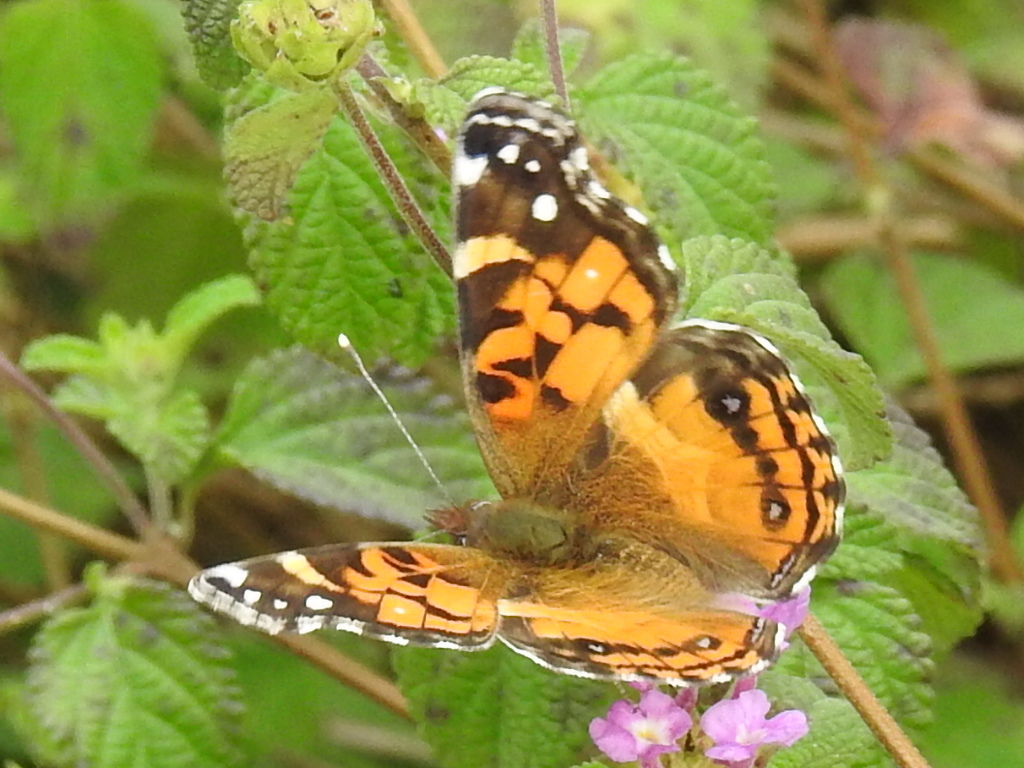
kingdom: Animalia
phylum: Arthropoda
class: Insecta
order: Lepidoptera
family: Nymphalidae
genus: Vanessa
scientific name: Vanessa virginiensis
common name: American lady
